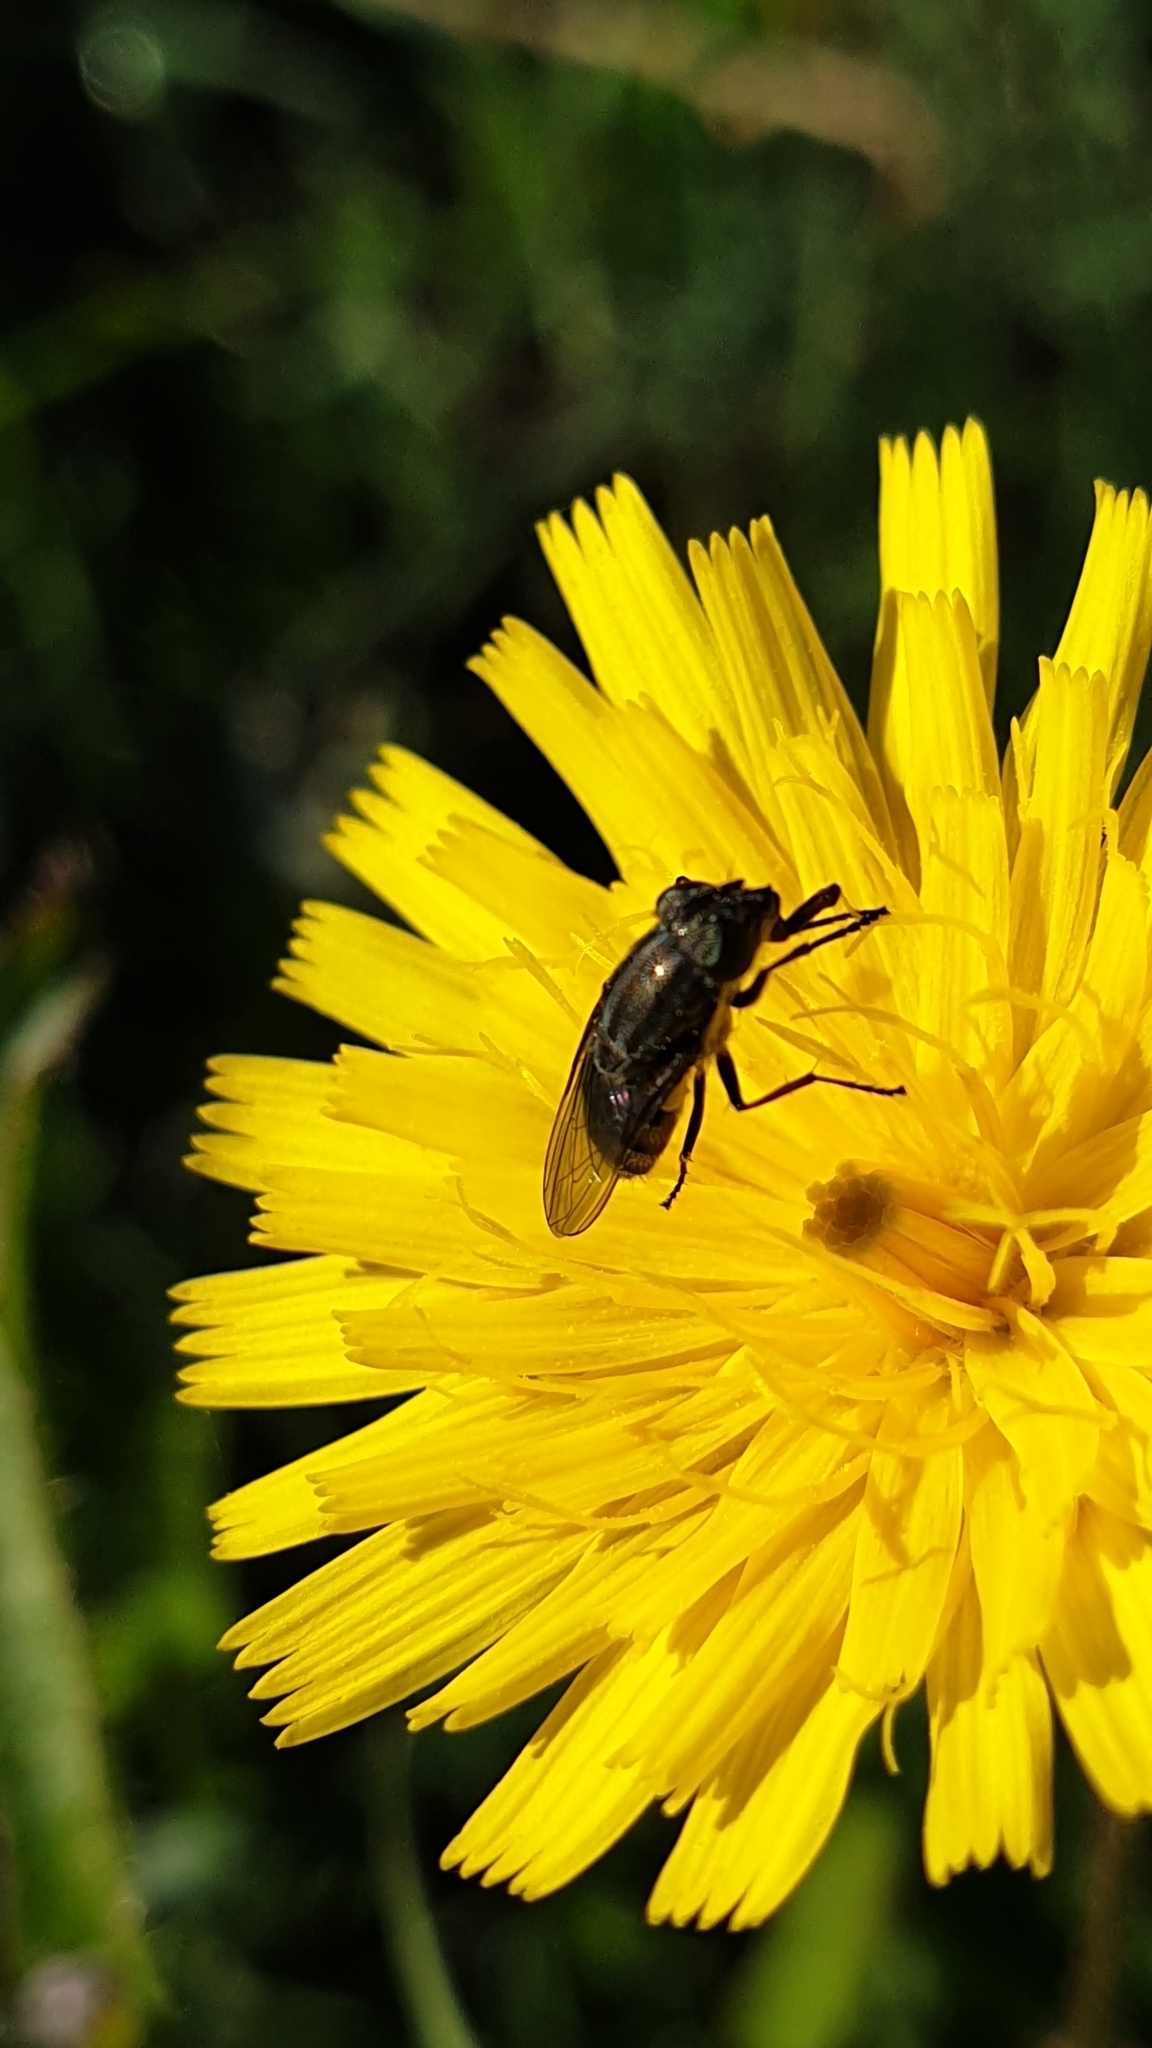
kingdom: Animalia
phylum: Arthropoda
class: Insecta
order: Diptera
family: Calliphoridae
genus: Stomorhina
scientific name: Stomorhina lunata
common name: Locust blowfly
